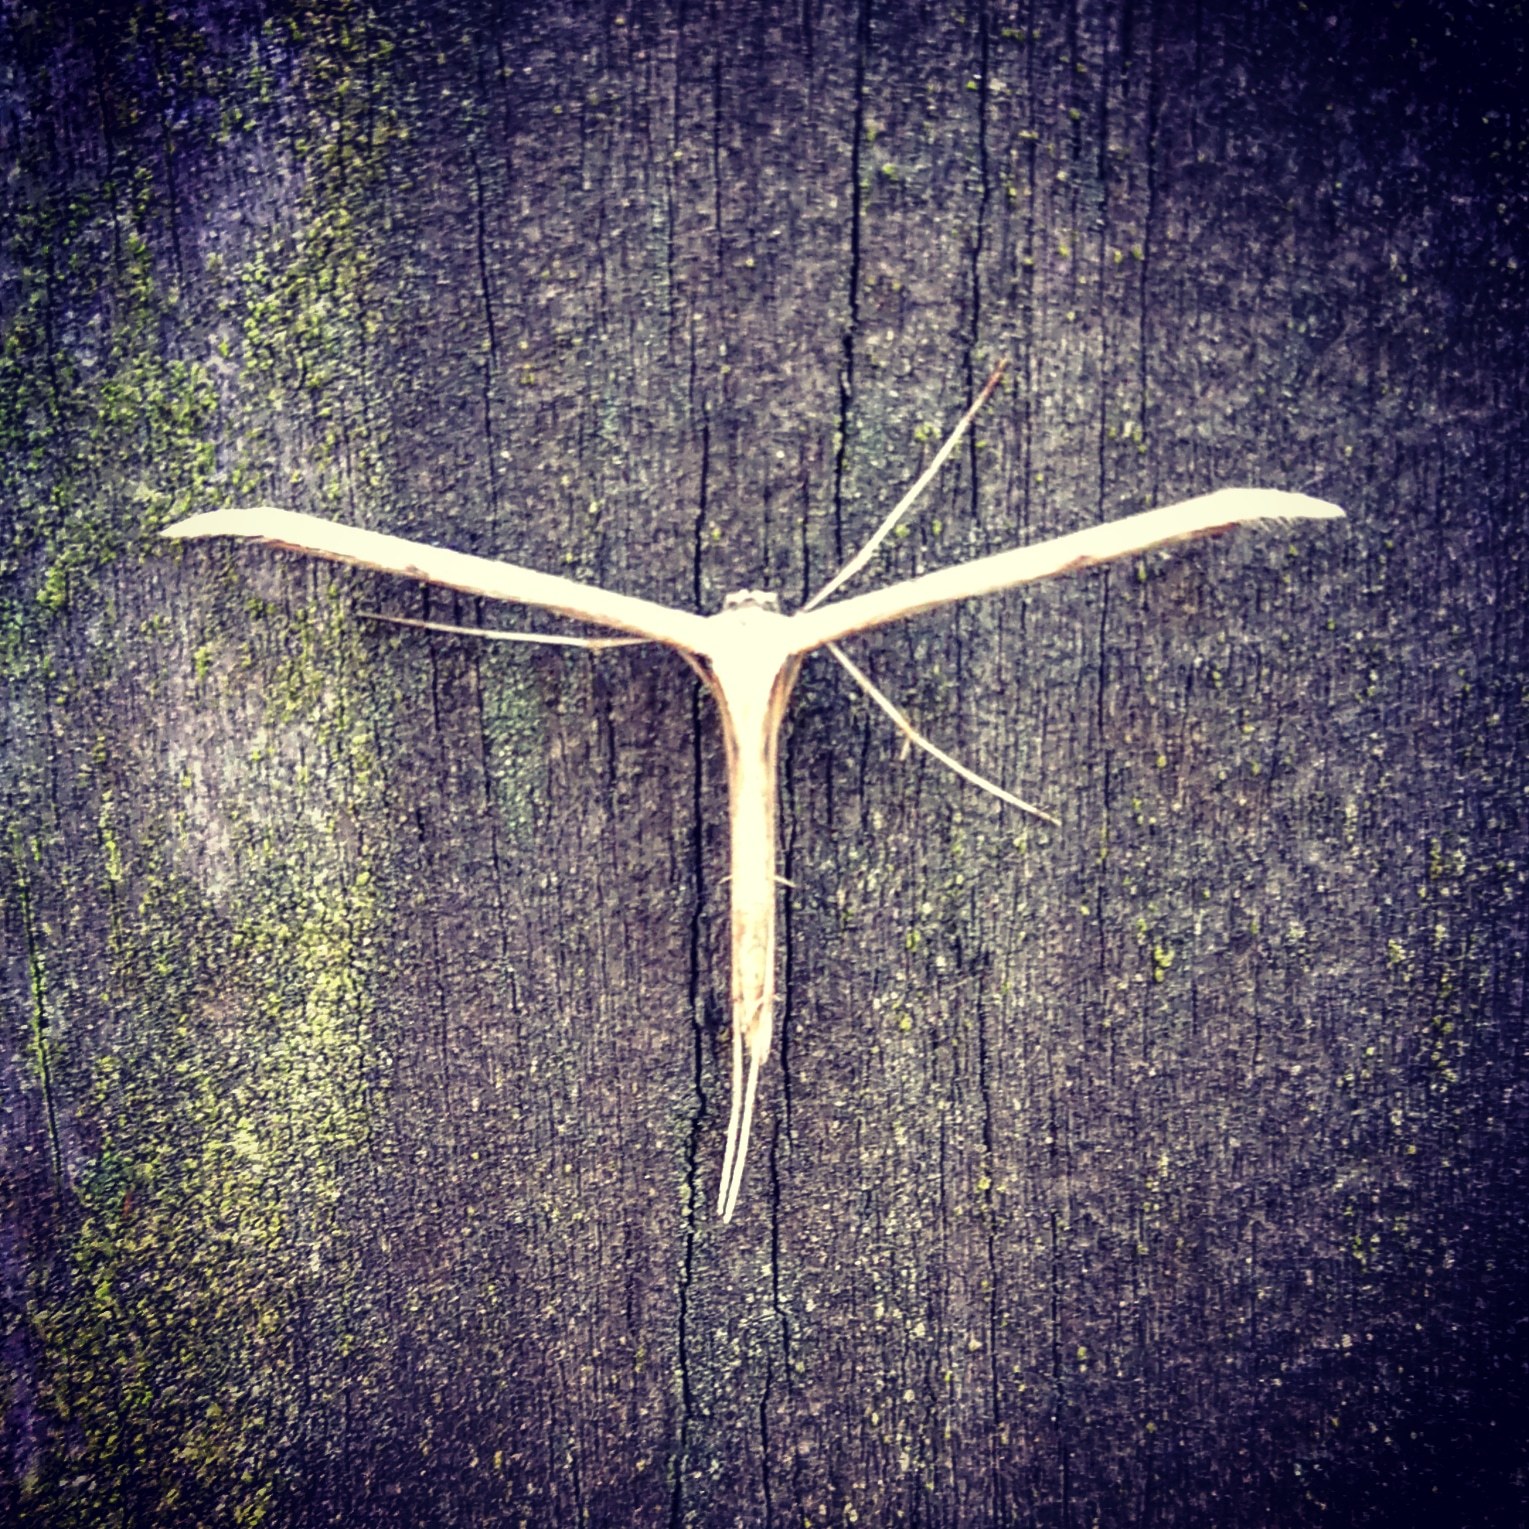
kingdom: Animalia
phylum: Arthropoda
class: Insecta
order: Lepidoptera
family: Pterophoridae
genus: Emmelina
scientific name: Emmelina monodactyla
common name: Common plume
